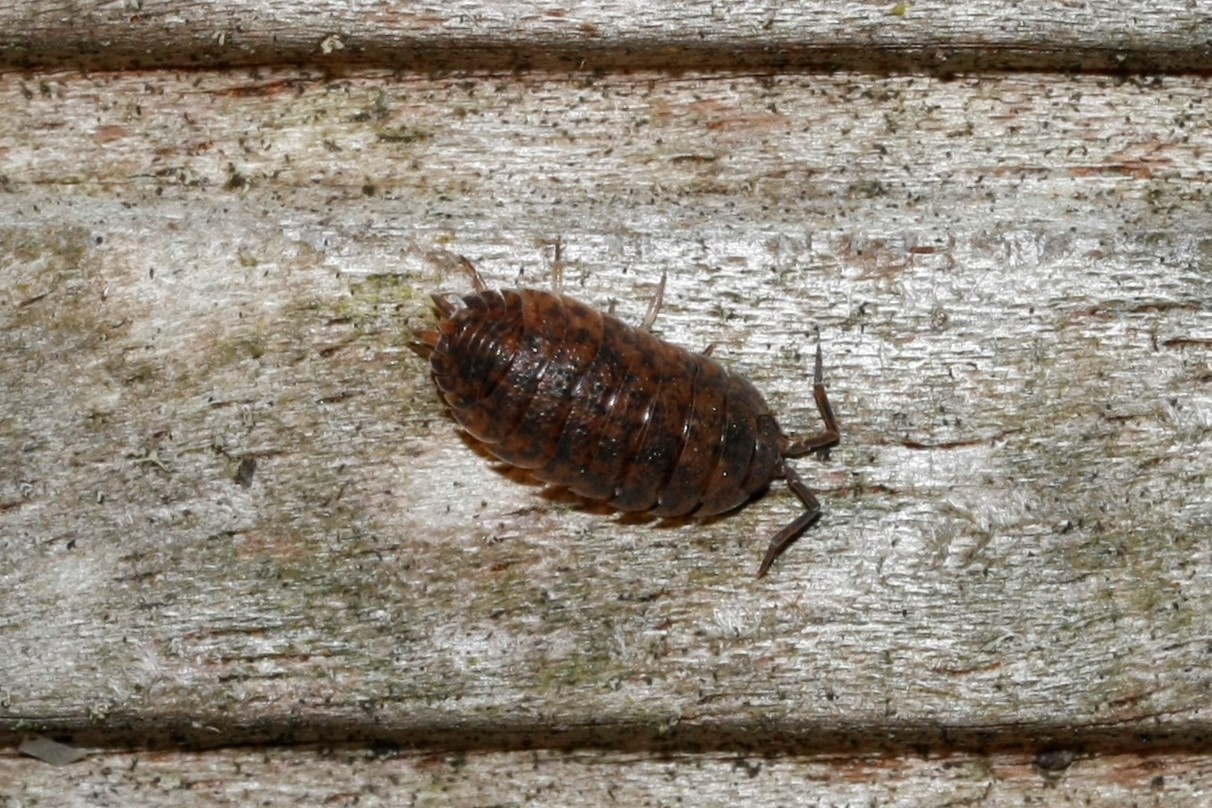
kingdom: Animalia
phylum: Arthropoda
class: Malacostraca
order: Isopoda
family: Porcellionidae
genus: Porcellio
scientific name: Porcellio scaber
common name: Common rough woodlouse
